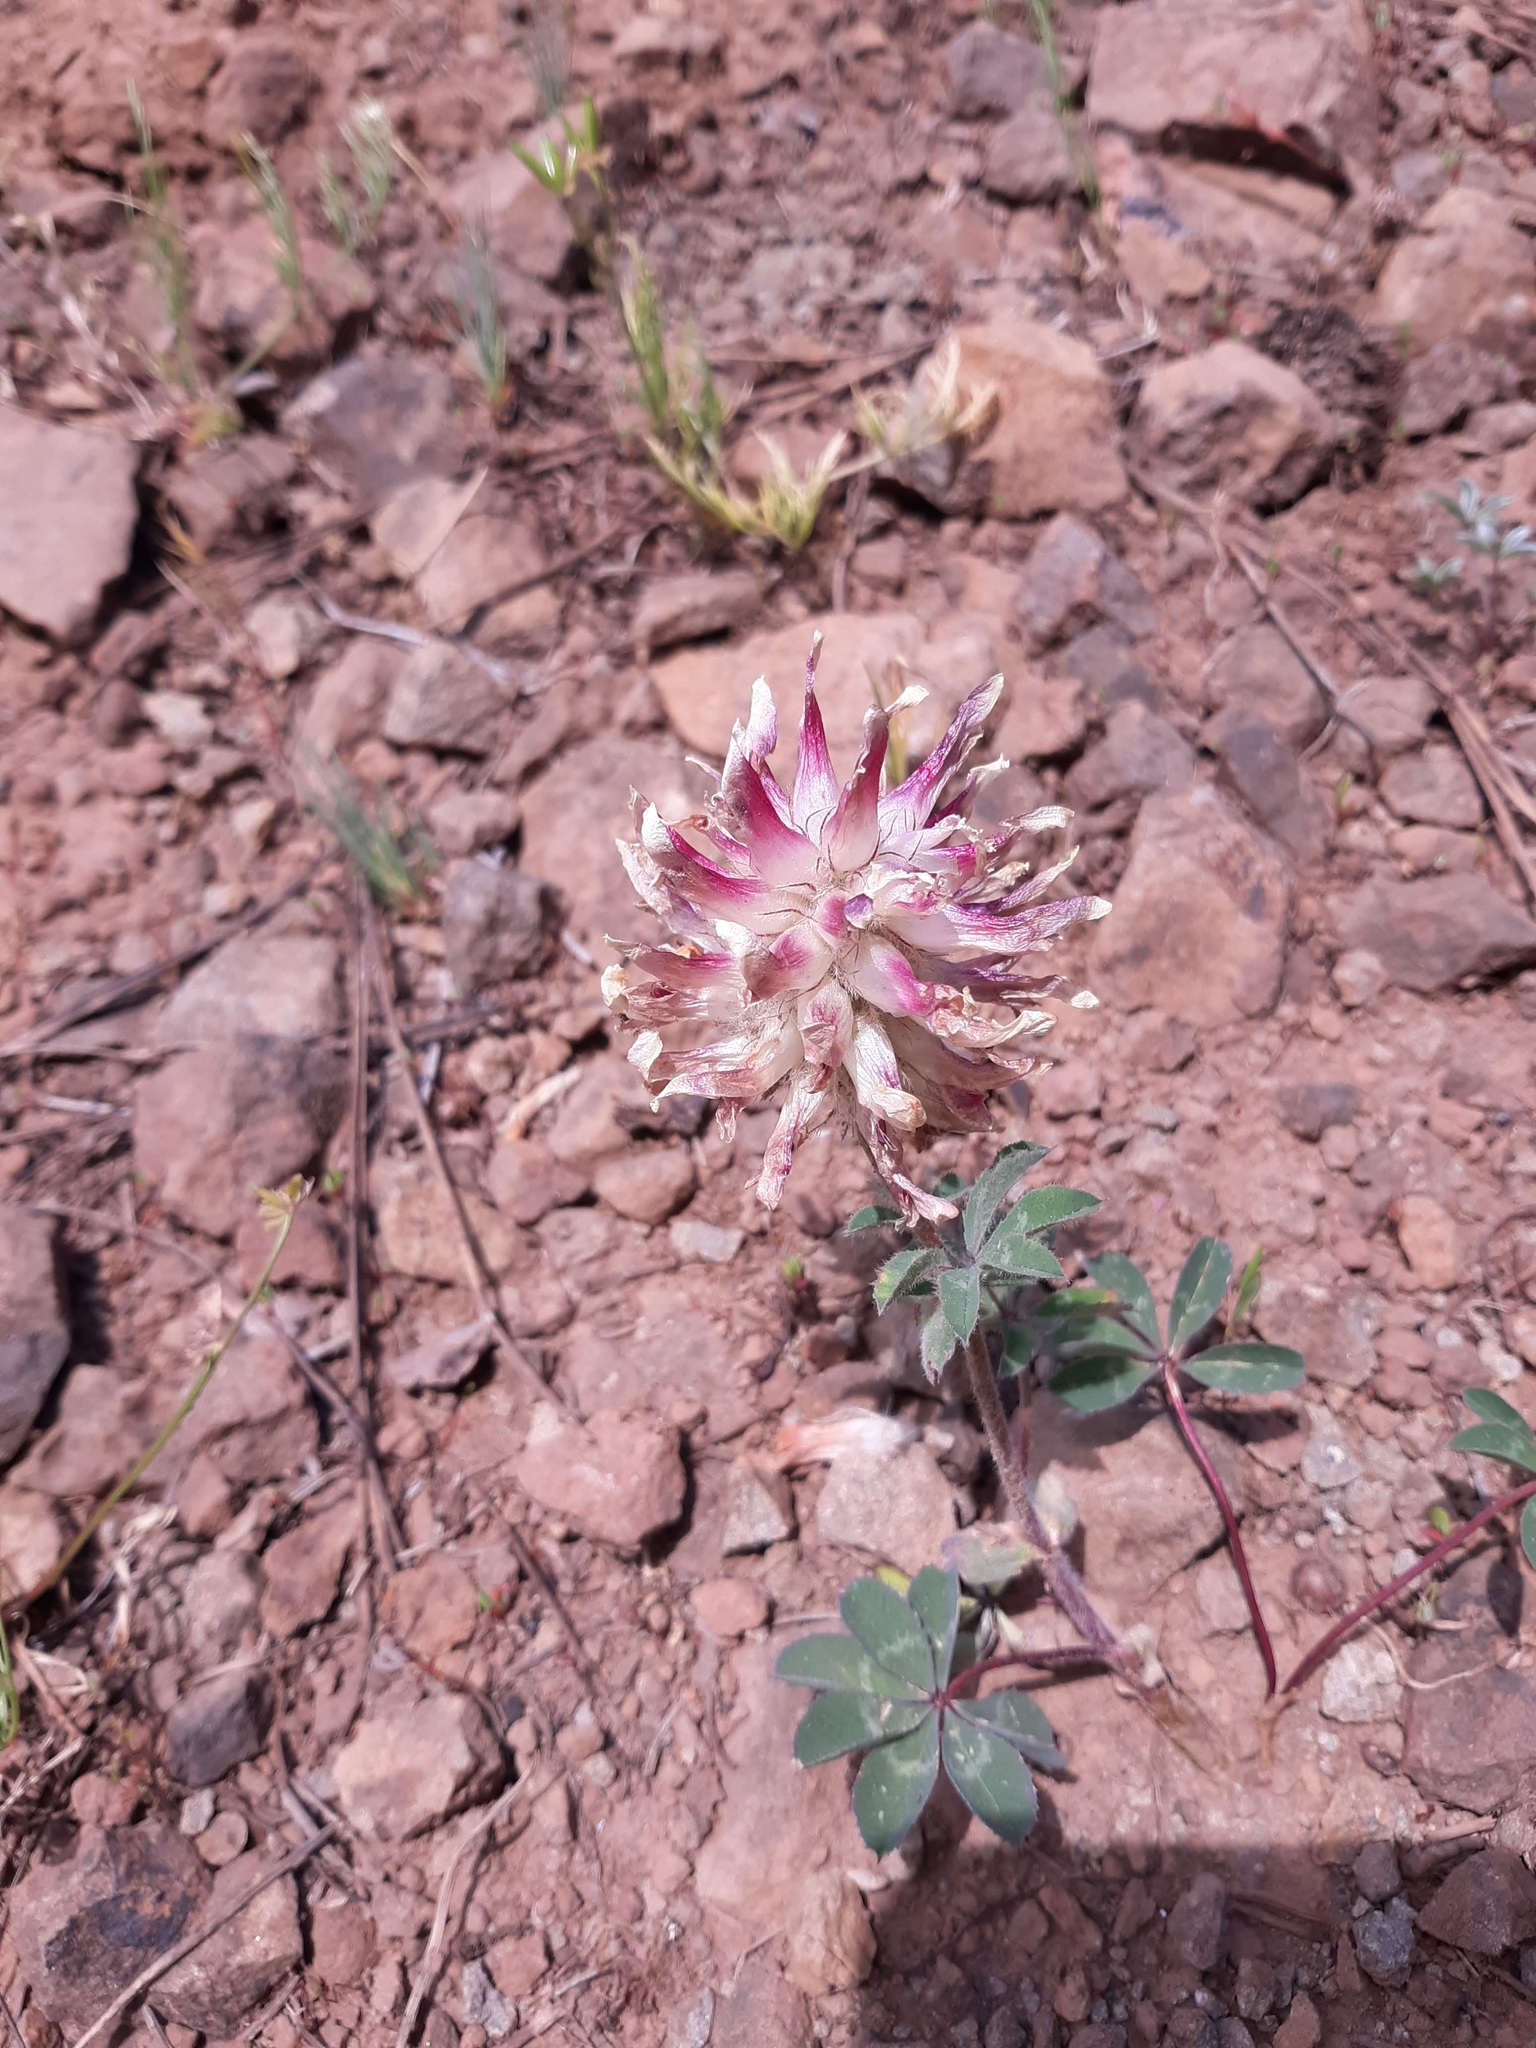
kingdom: Plantae
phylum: Tracheophyta
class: Magnoliopsida
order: Fabales
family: Fabaceae
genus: Trifolium
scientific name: Trifolium macrocephalum
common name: Large-head clover
